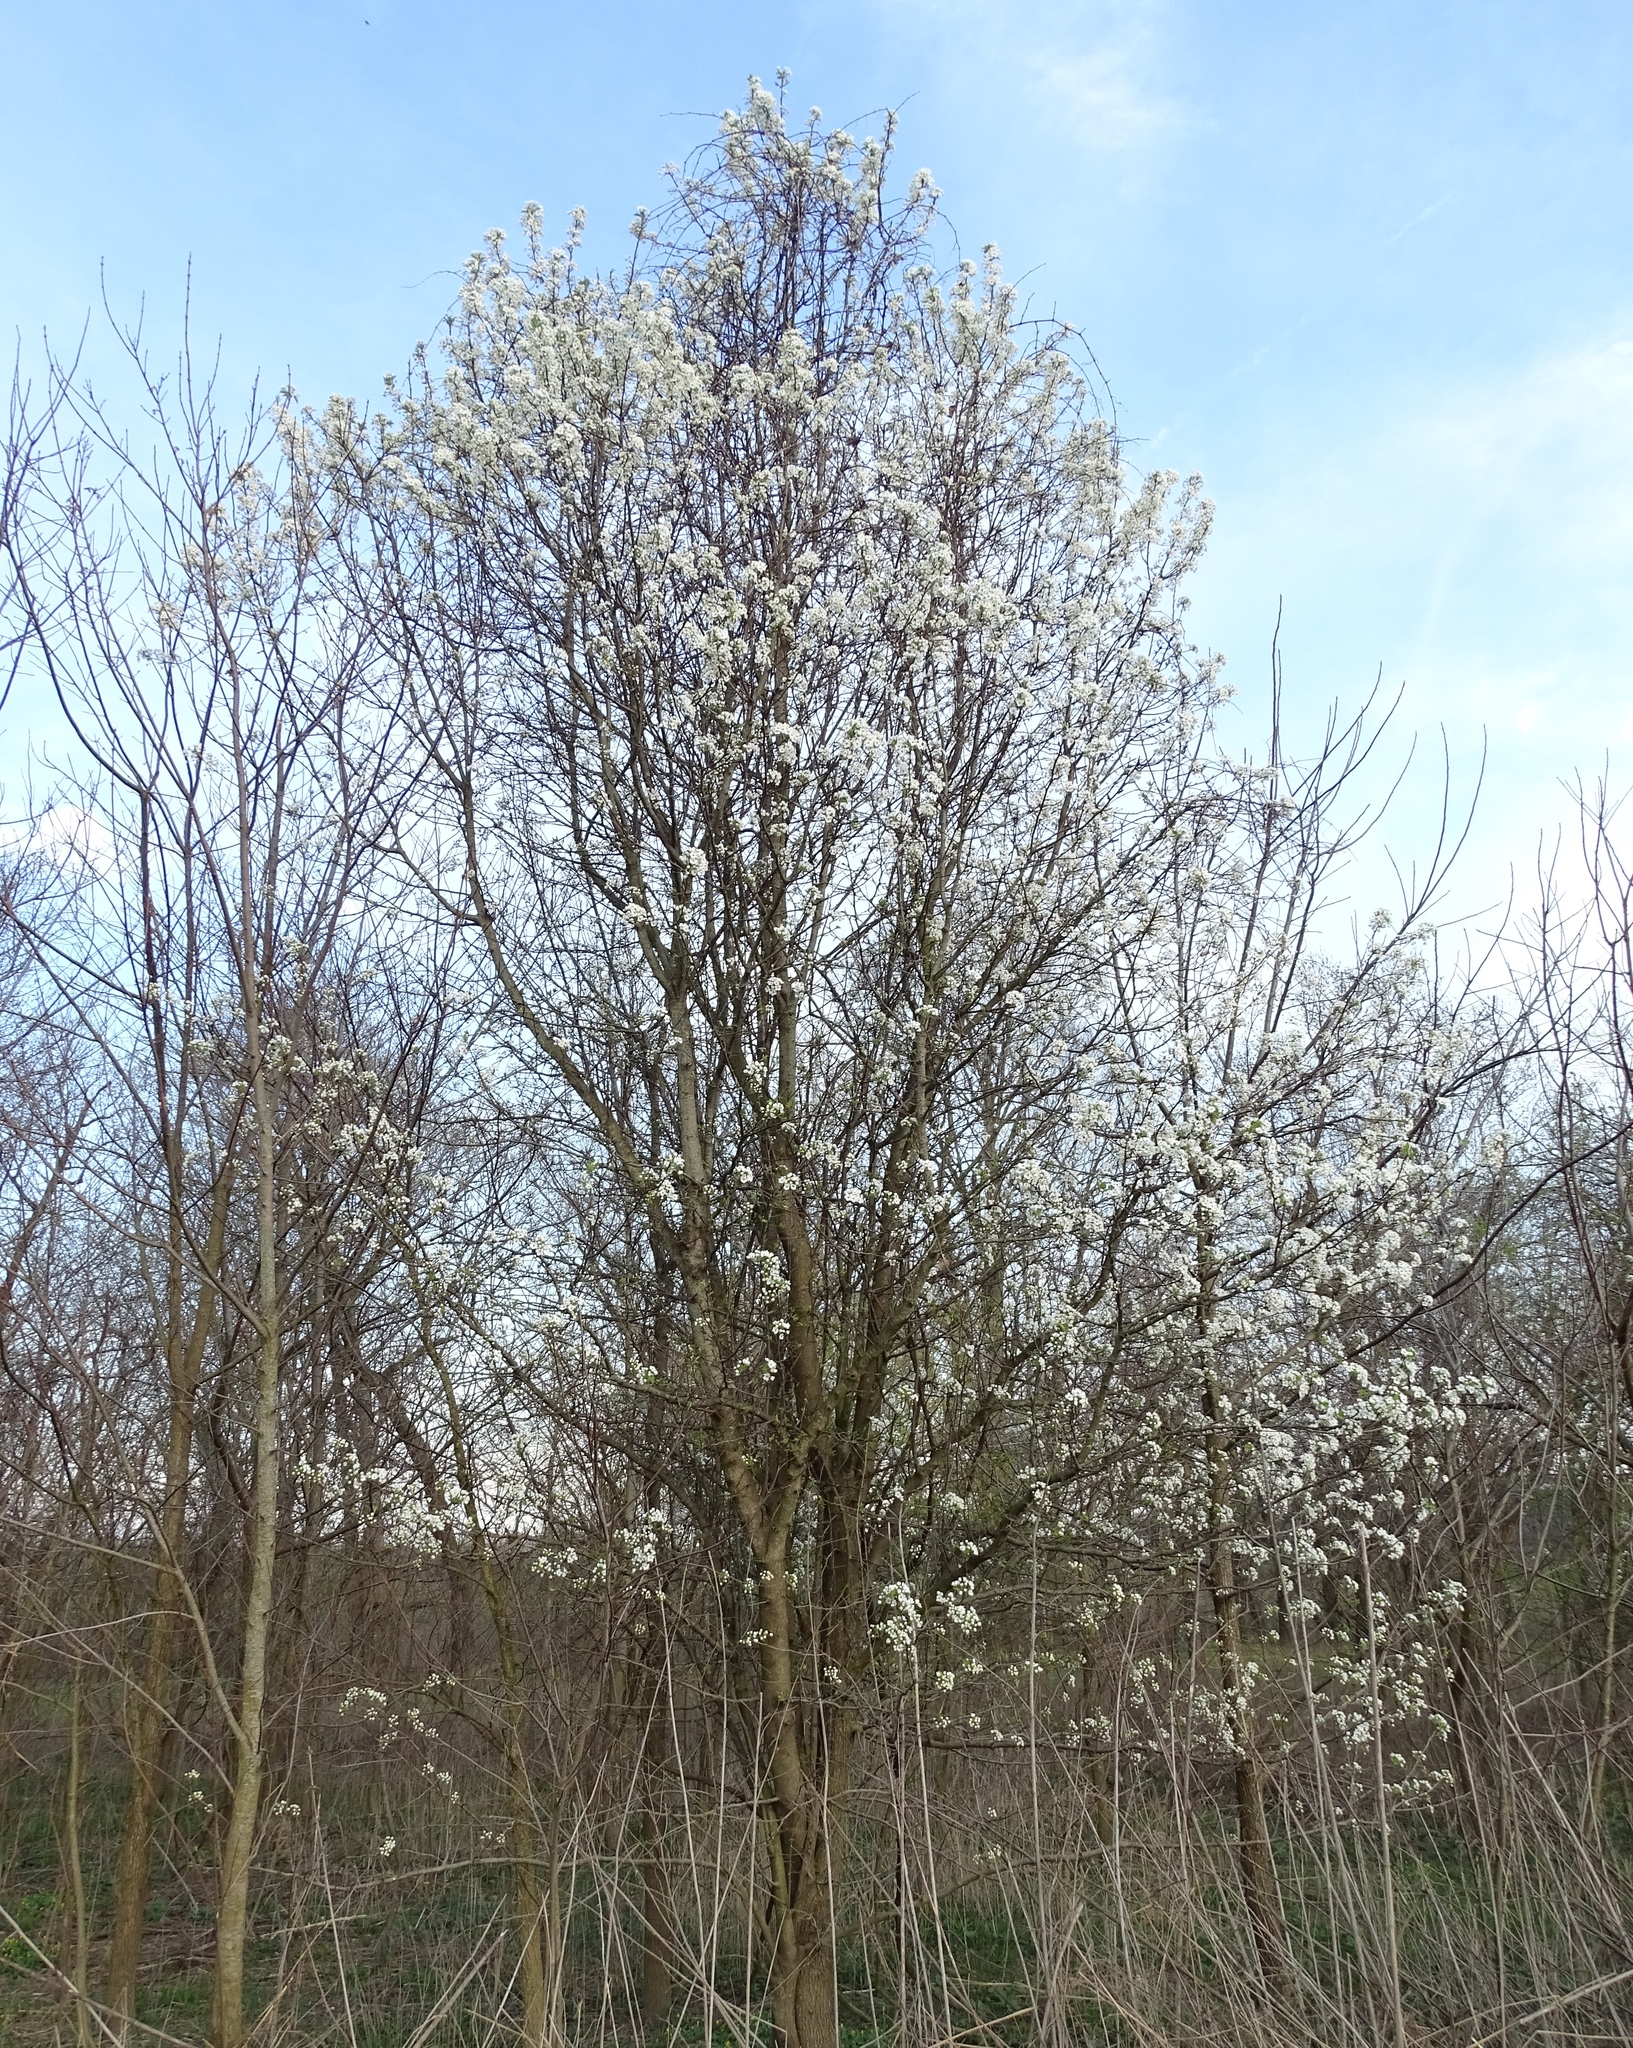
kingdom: Plantae
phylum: Tracheophyta
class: Magnoliopsida
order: Rosales
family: Rosaceae
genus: Pyrus
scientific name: Pyrus calleryana
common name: Callery pear
